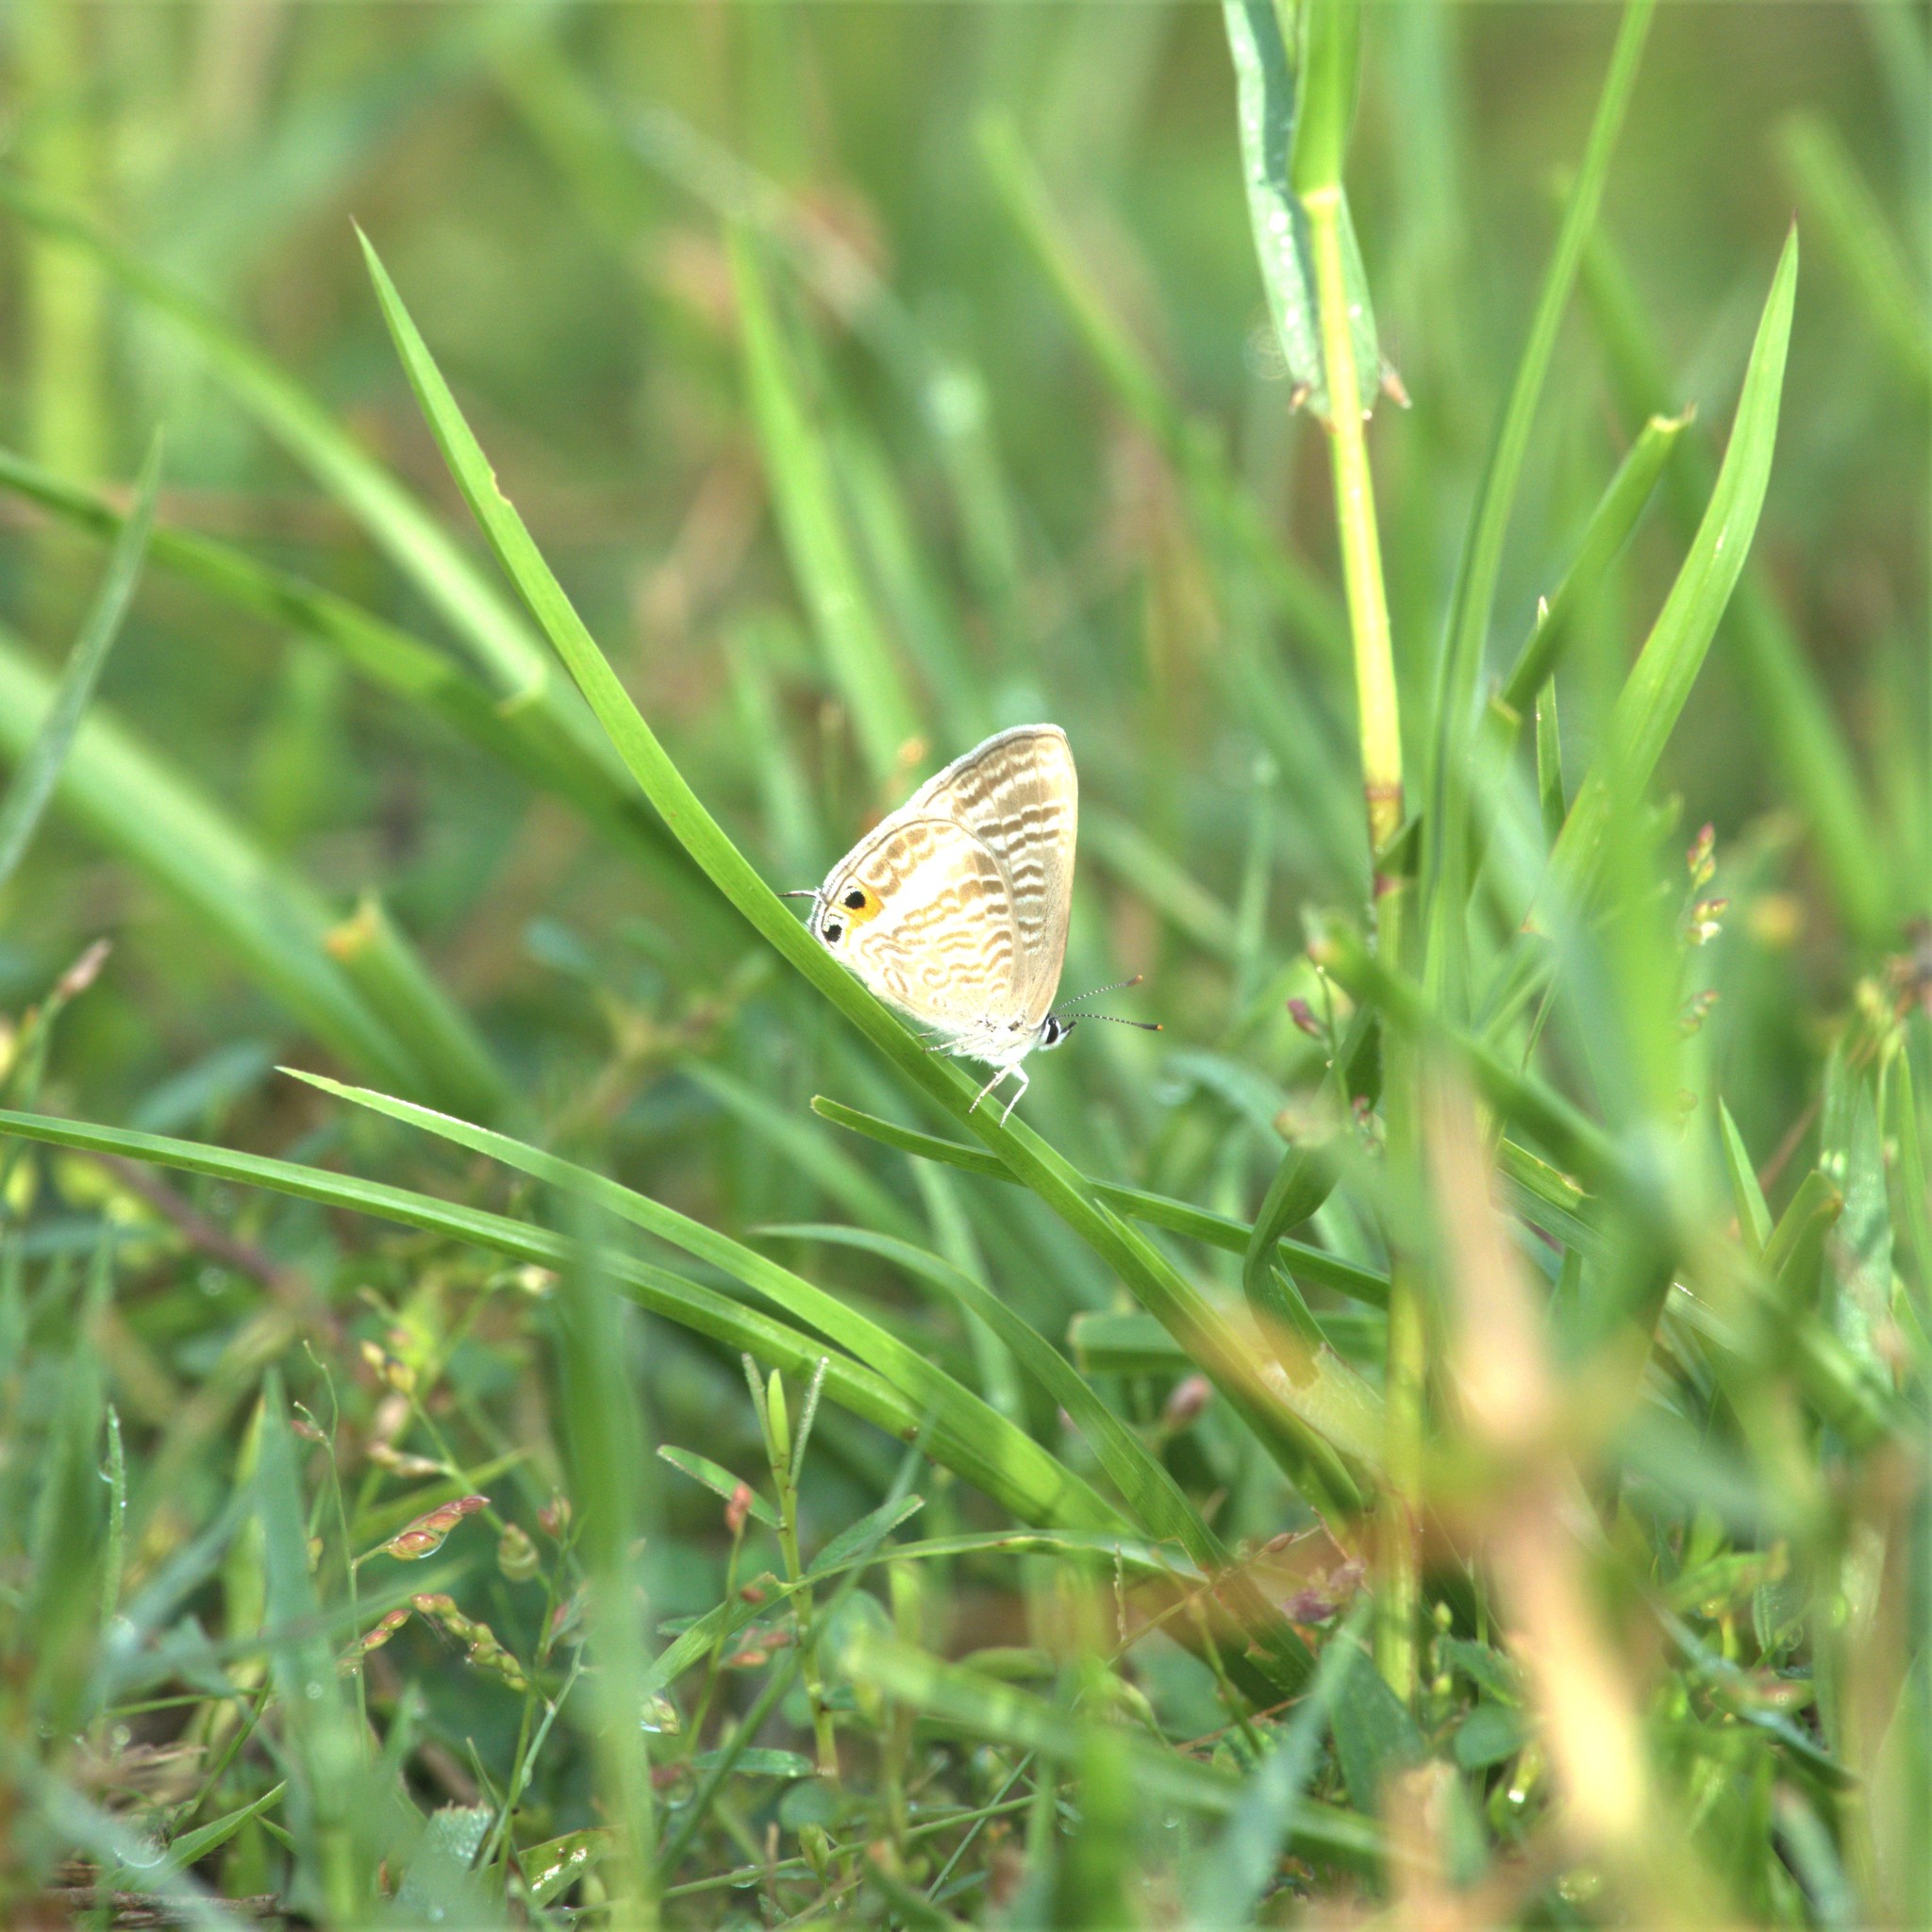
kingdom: Animalia
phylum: Arthropoda
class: Insecta
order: Lepidoptera
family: Lycaenidae
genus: Lampides
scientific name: Lampides boeticus
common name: Long-tailed blue
